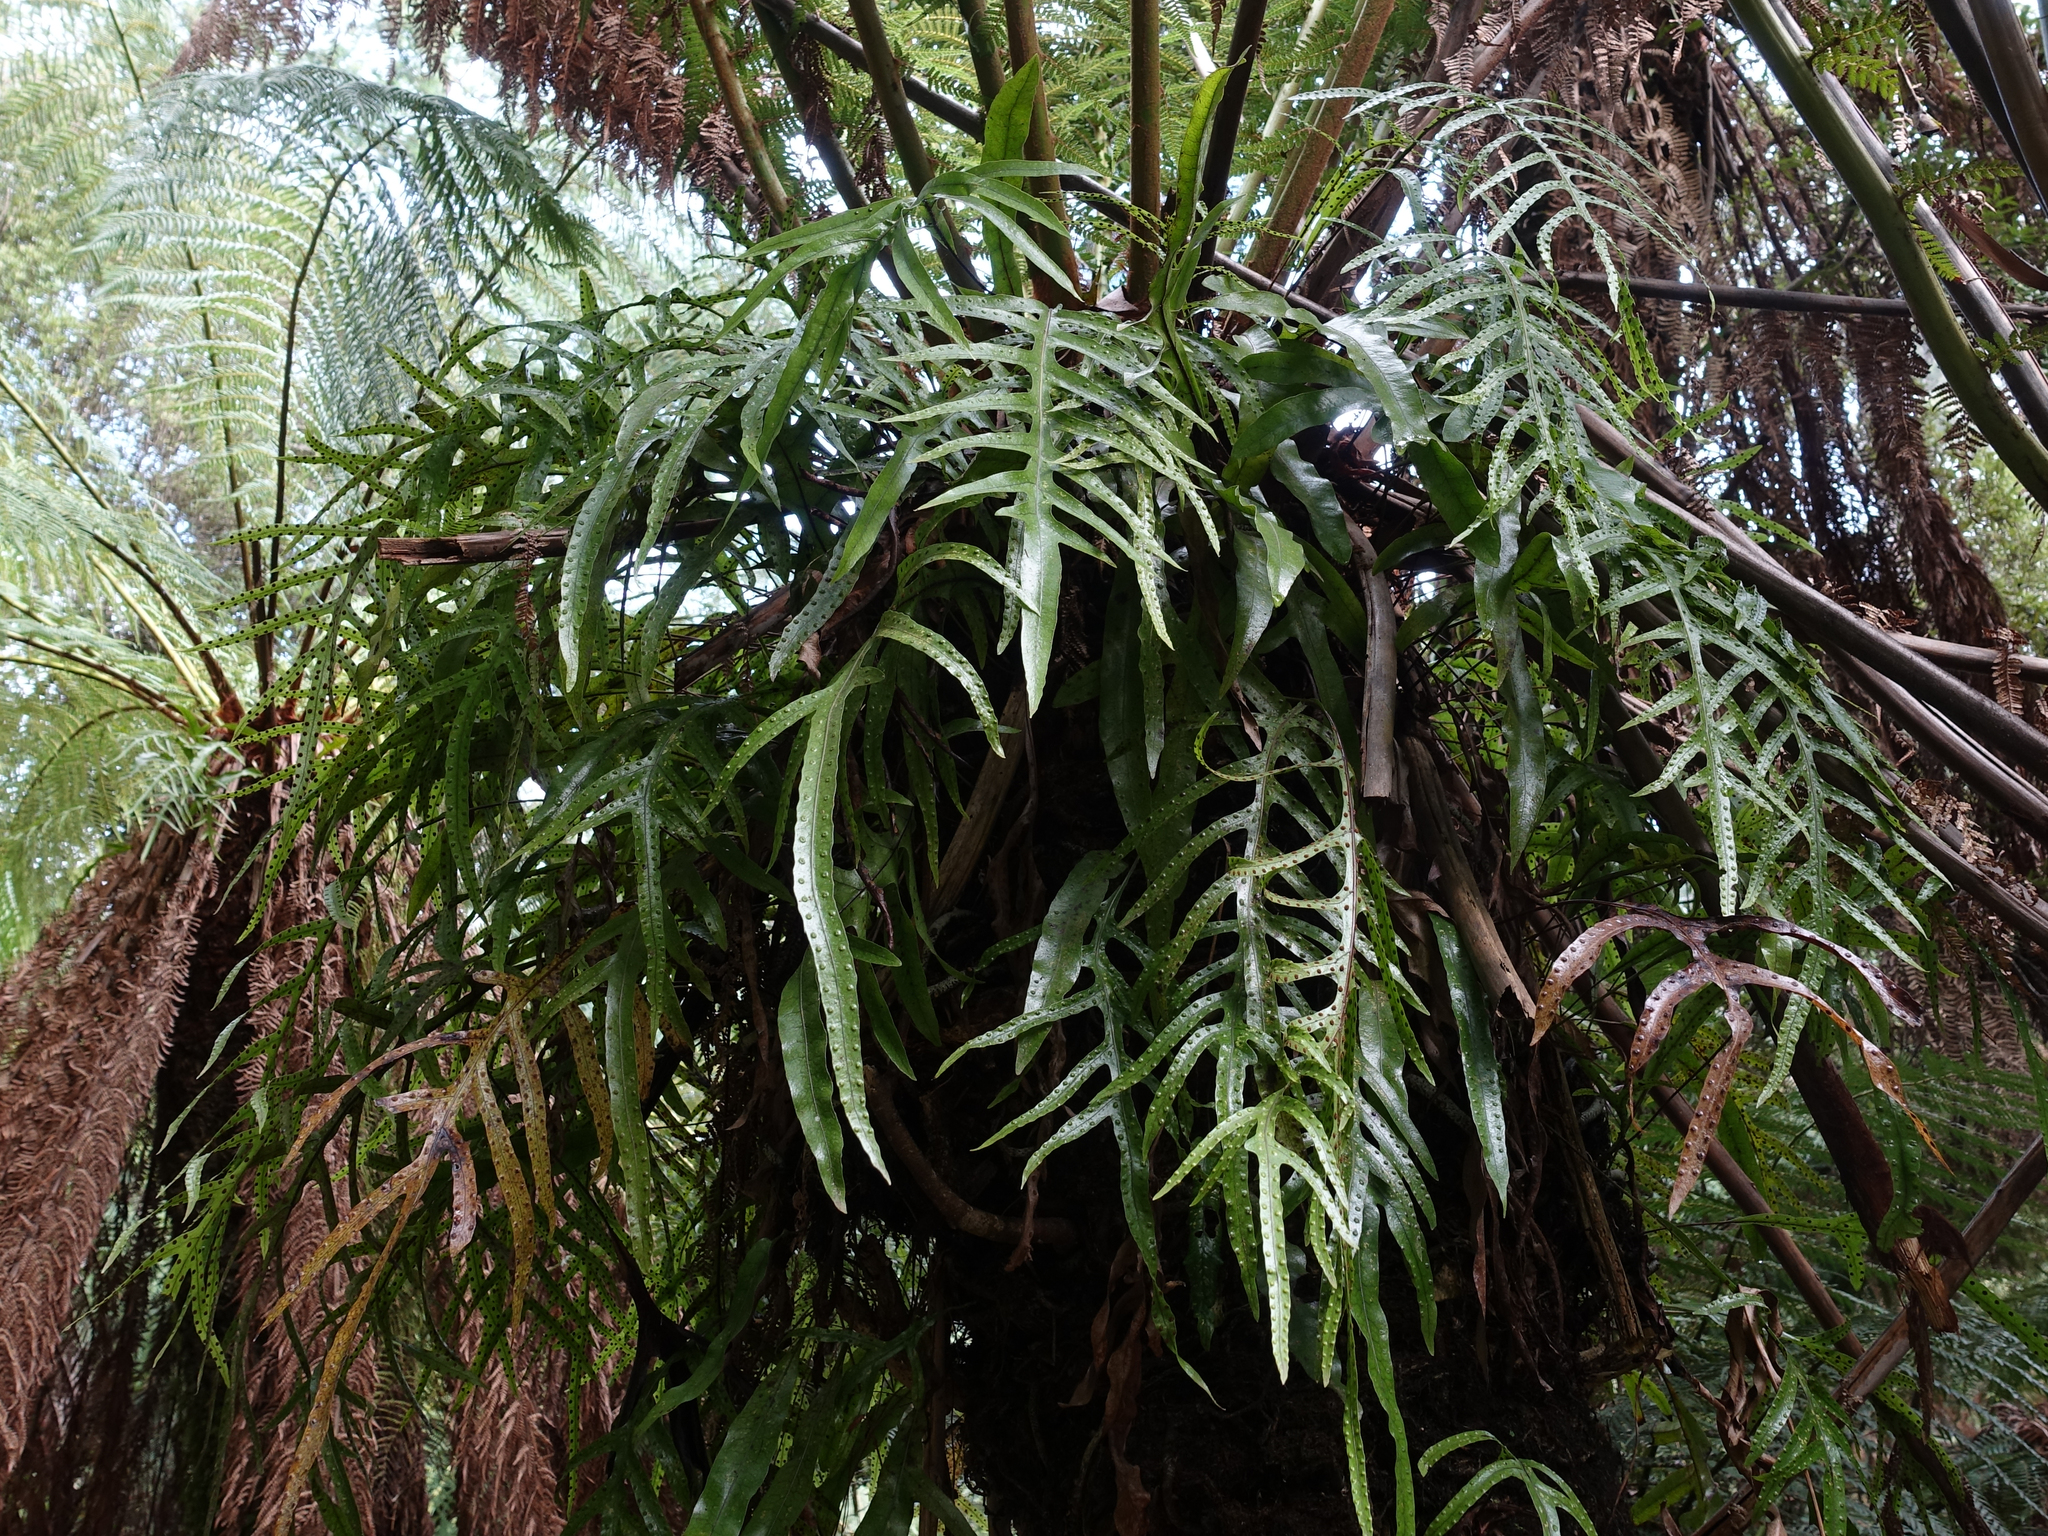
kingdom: Plantae
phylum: Tracheophyta
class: Polypodiopsida
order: Polypodiales
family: Polypodiaceae
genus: Lecanopteris
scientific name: Lecanopteris pustulata
